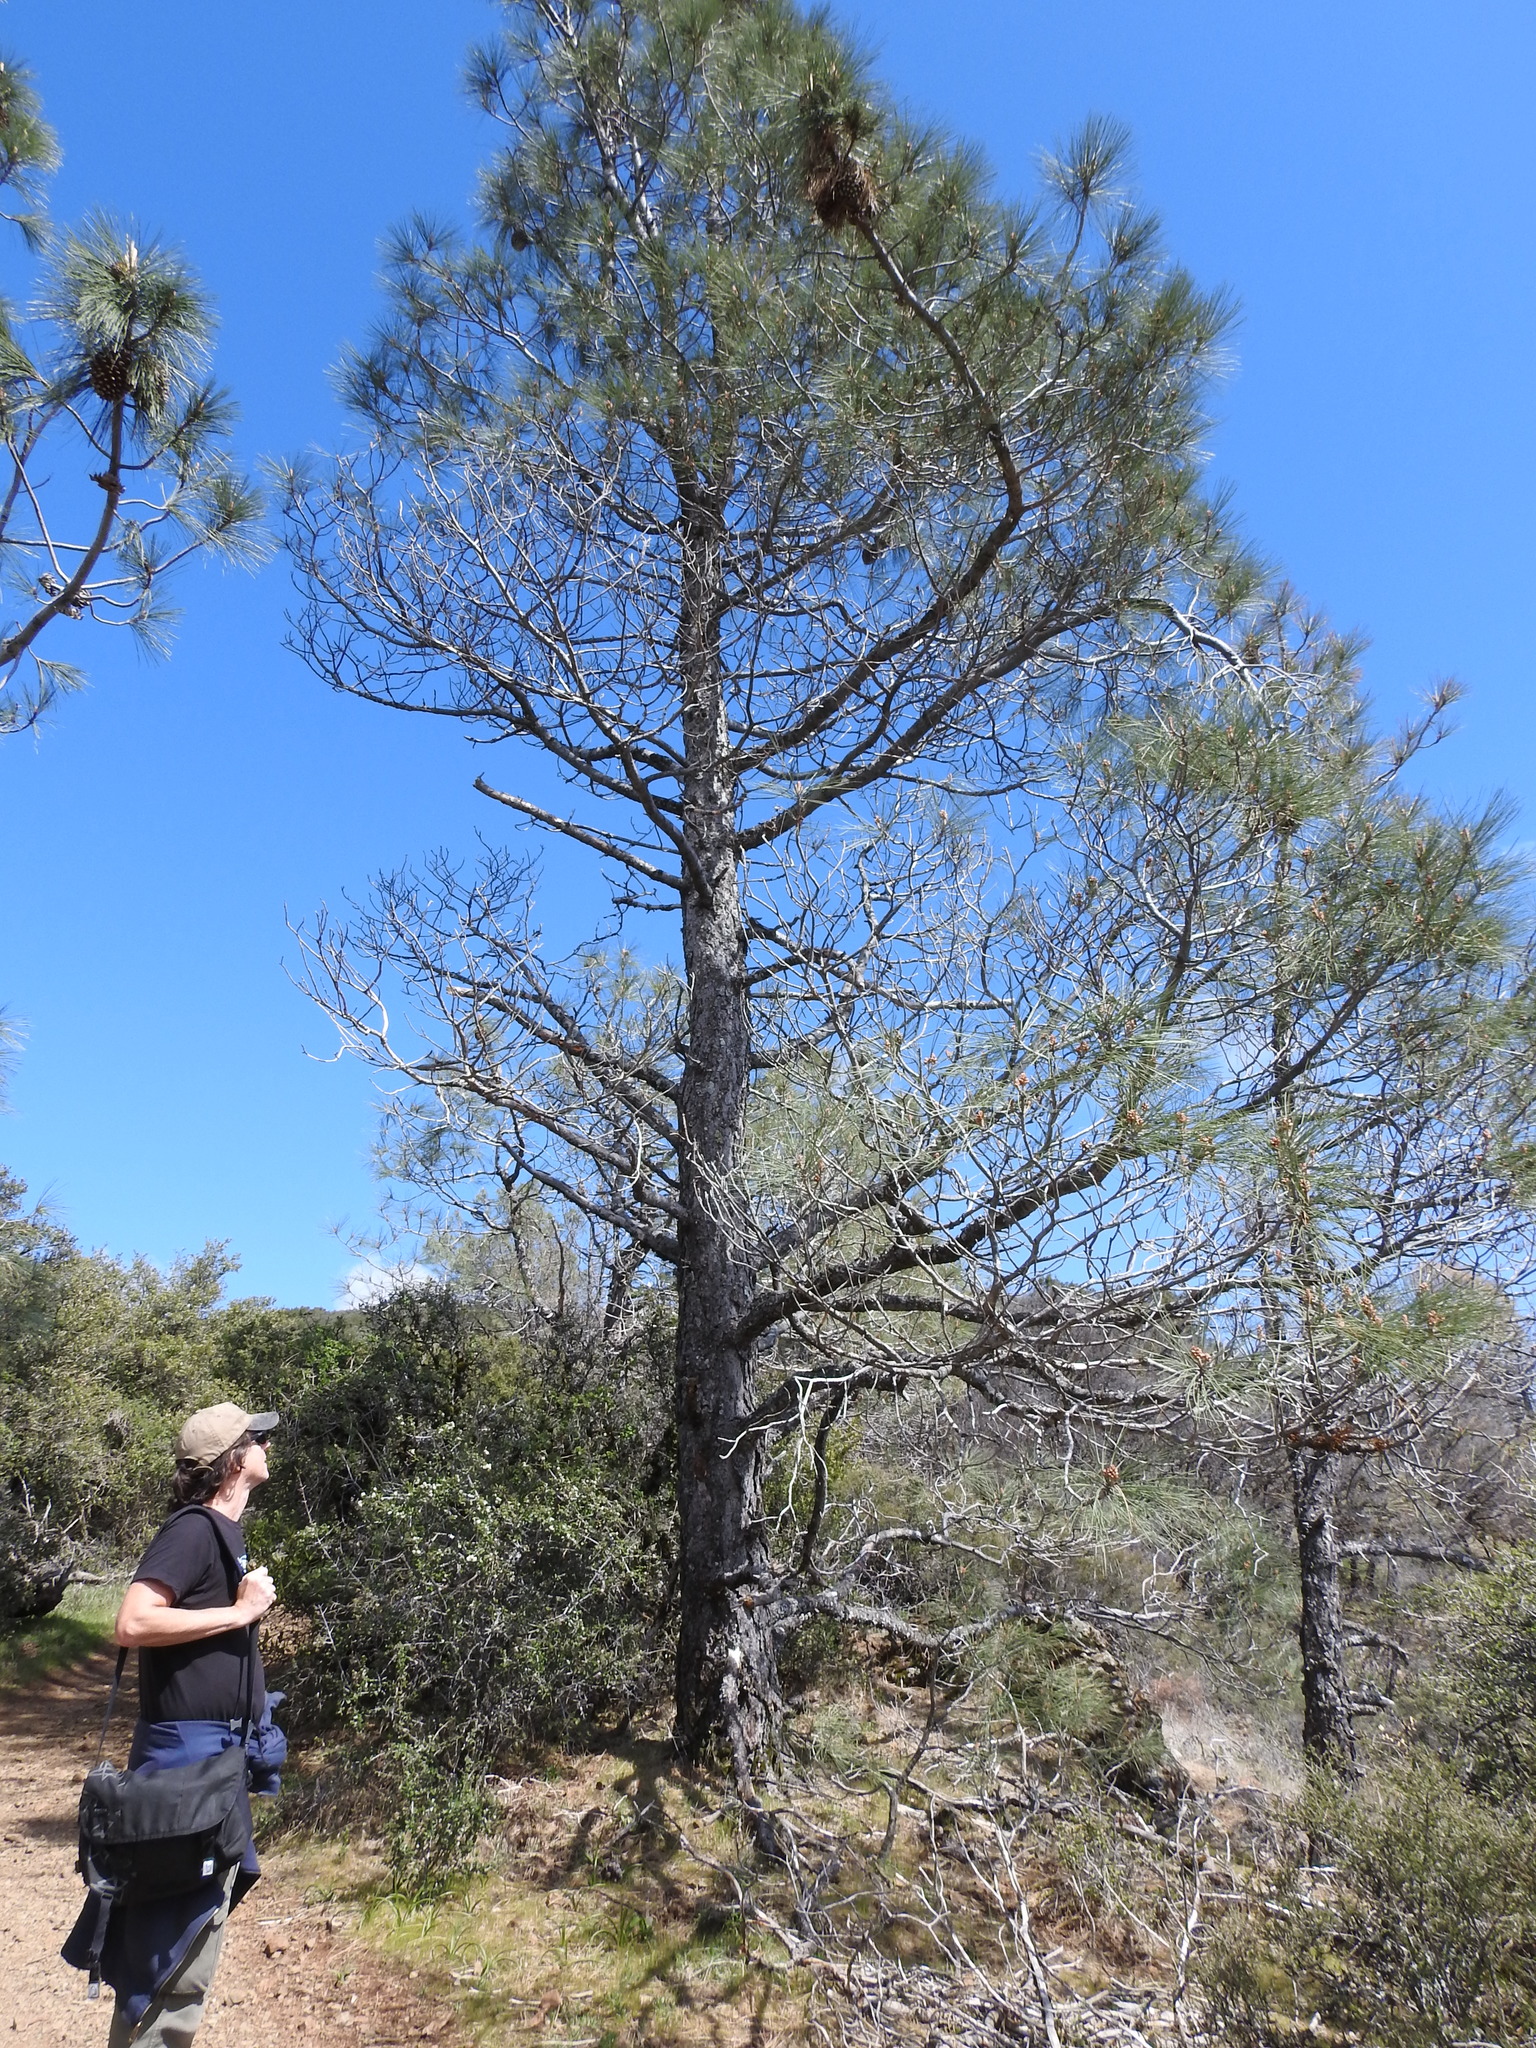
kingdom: Plantae
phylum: Tracheophyta
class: Pinopsida
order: Pinales
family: Pinaceae
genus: Pinus
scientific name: Pinus sabiniana
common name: Bull pine
